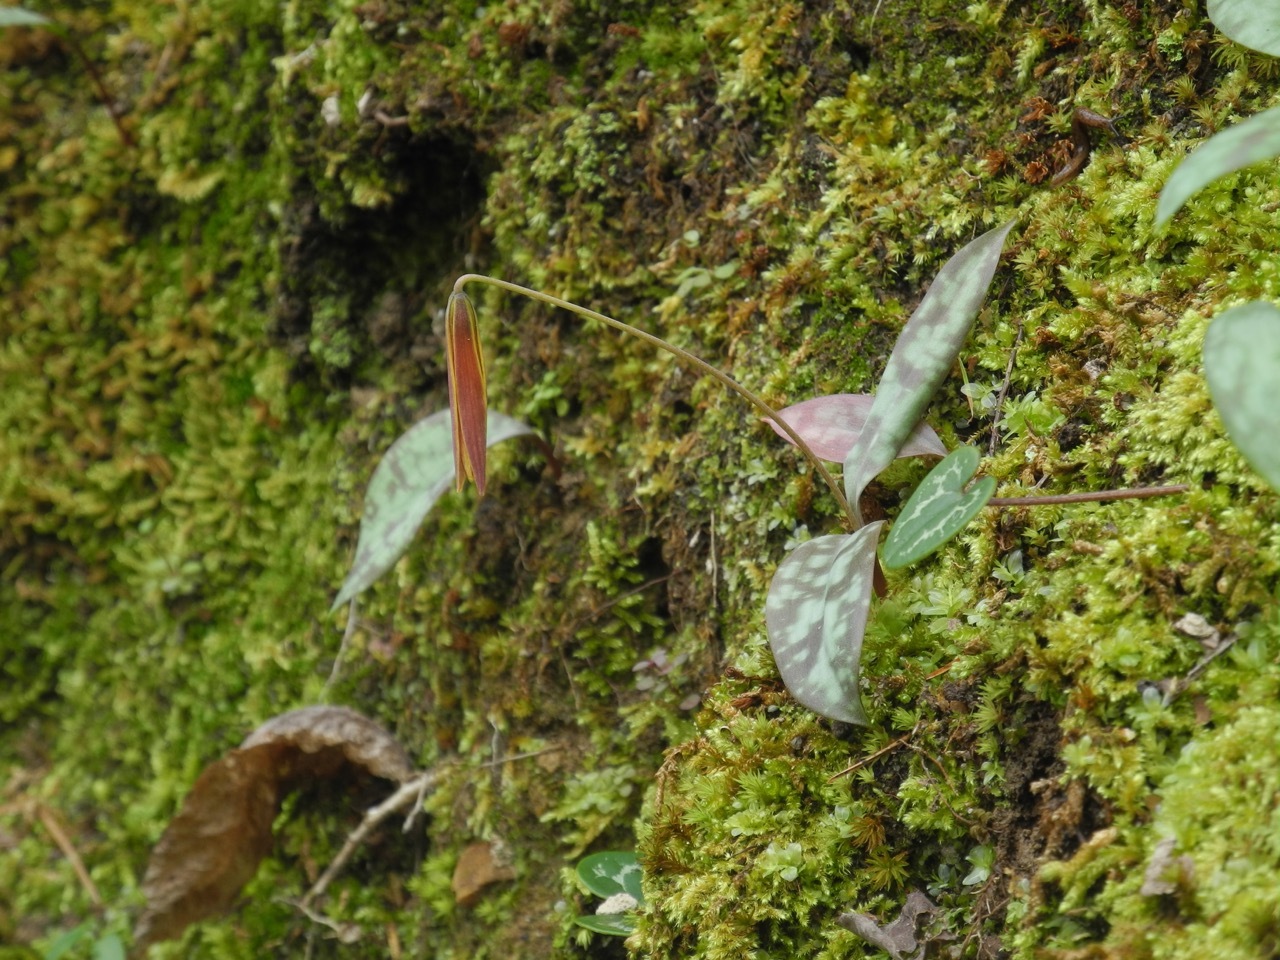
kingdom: Plantae
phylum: Tracheophyta
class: Liliopsida
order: Liliales
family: Liliaceae
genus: Erythronium
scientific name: Erythronium umbilicatum
